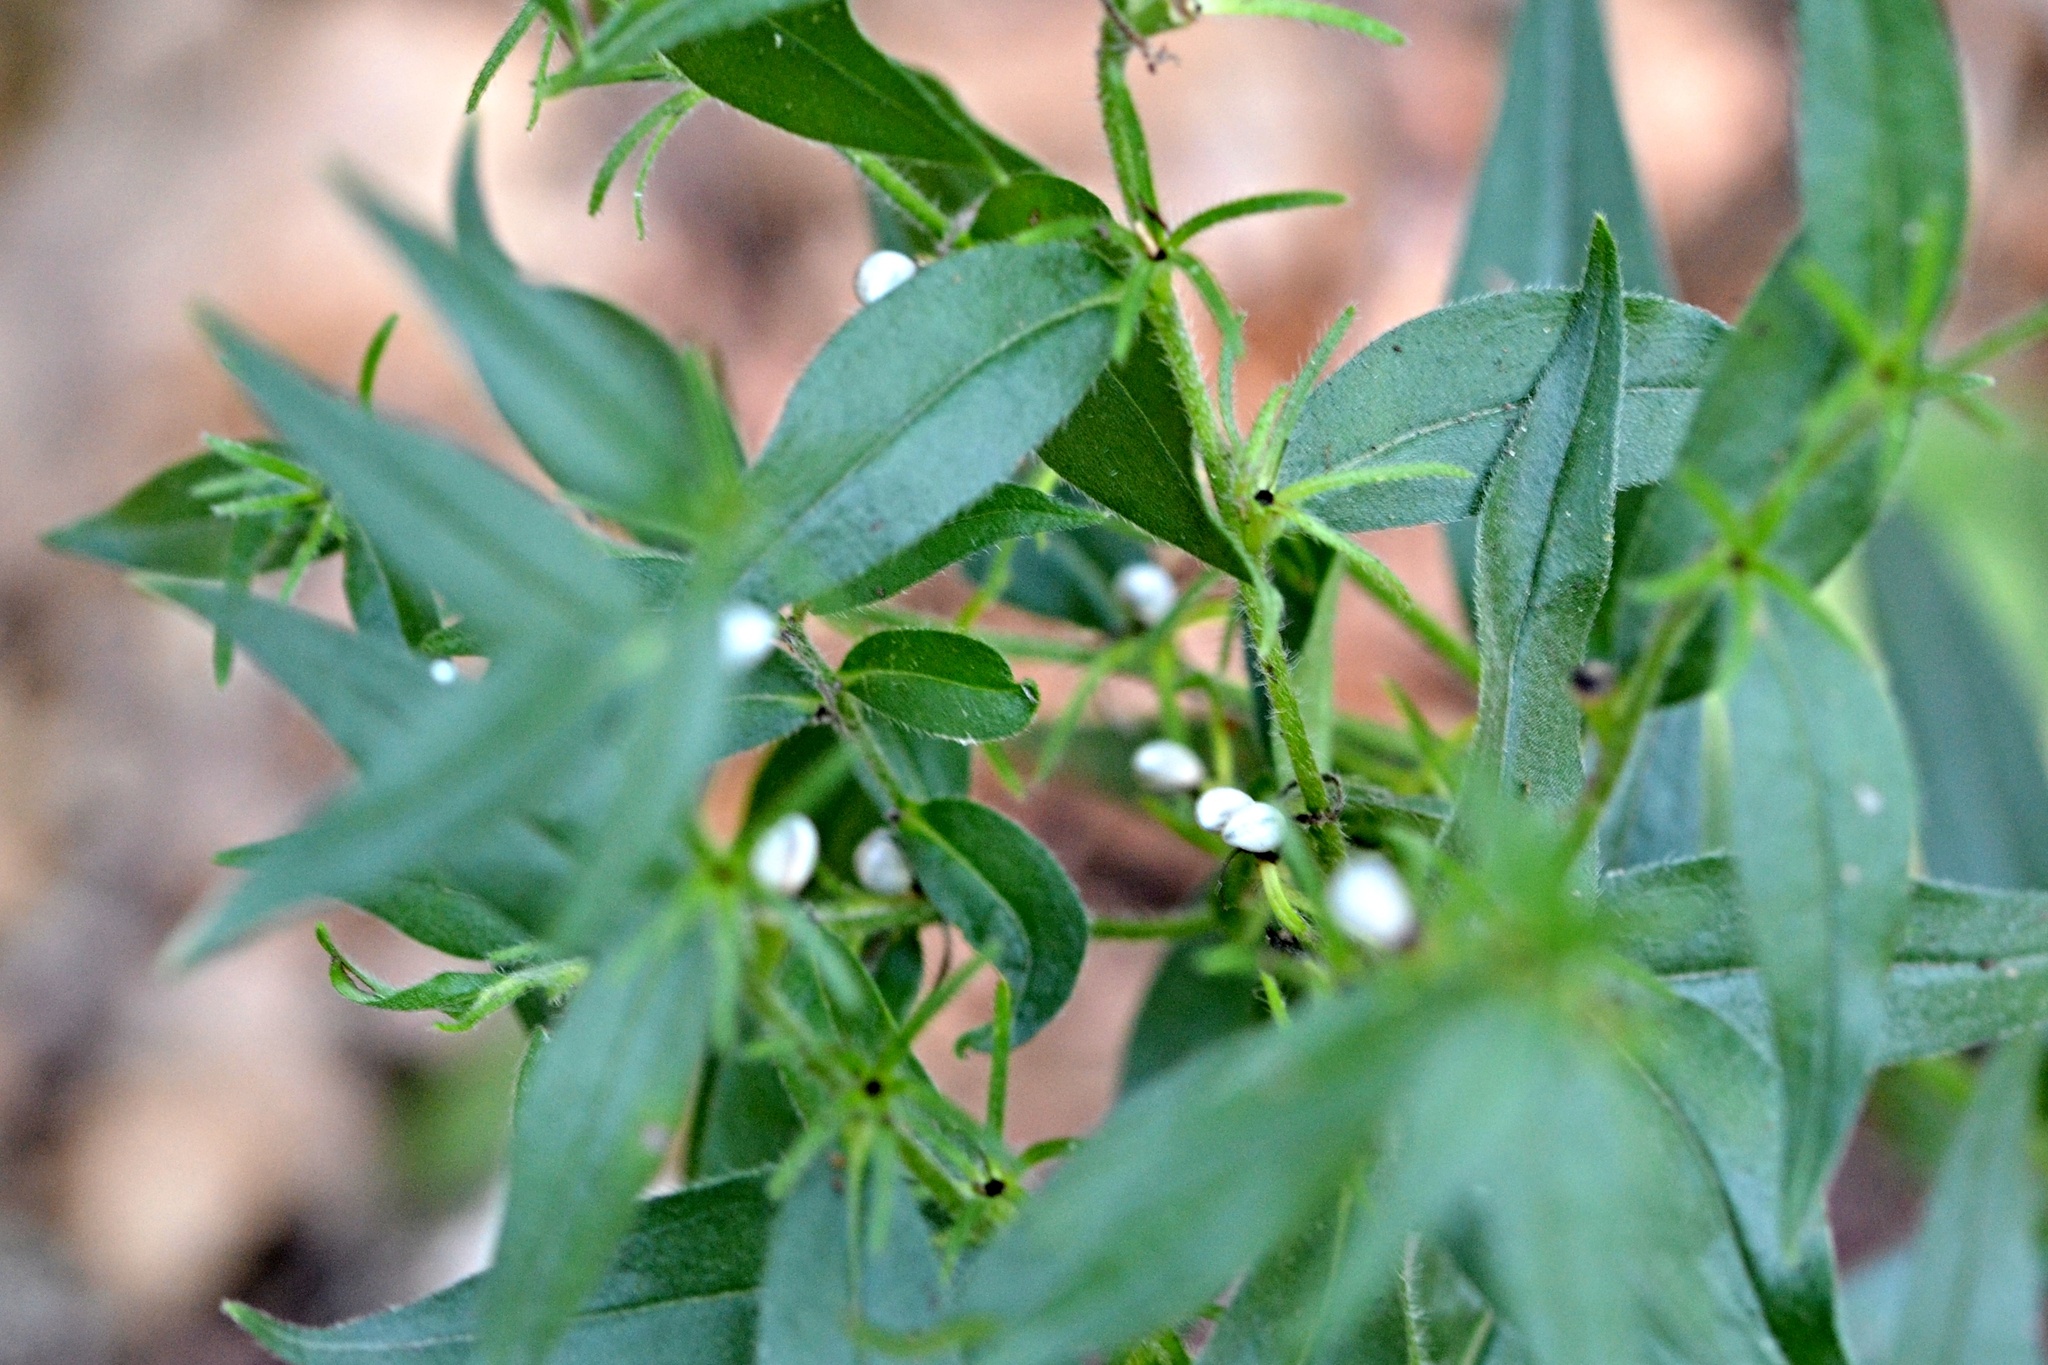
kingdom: Plantae
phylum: Tracheophyta
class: Magnoliopsida
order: Boraginales
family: Boraginaceae
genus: Aegonychon
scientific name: Aegonychon purpurocaeruleum
